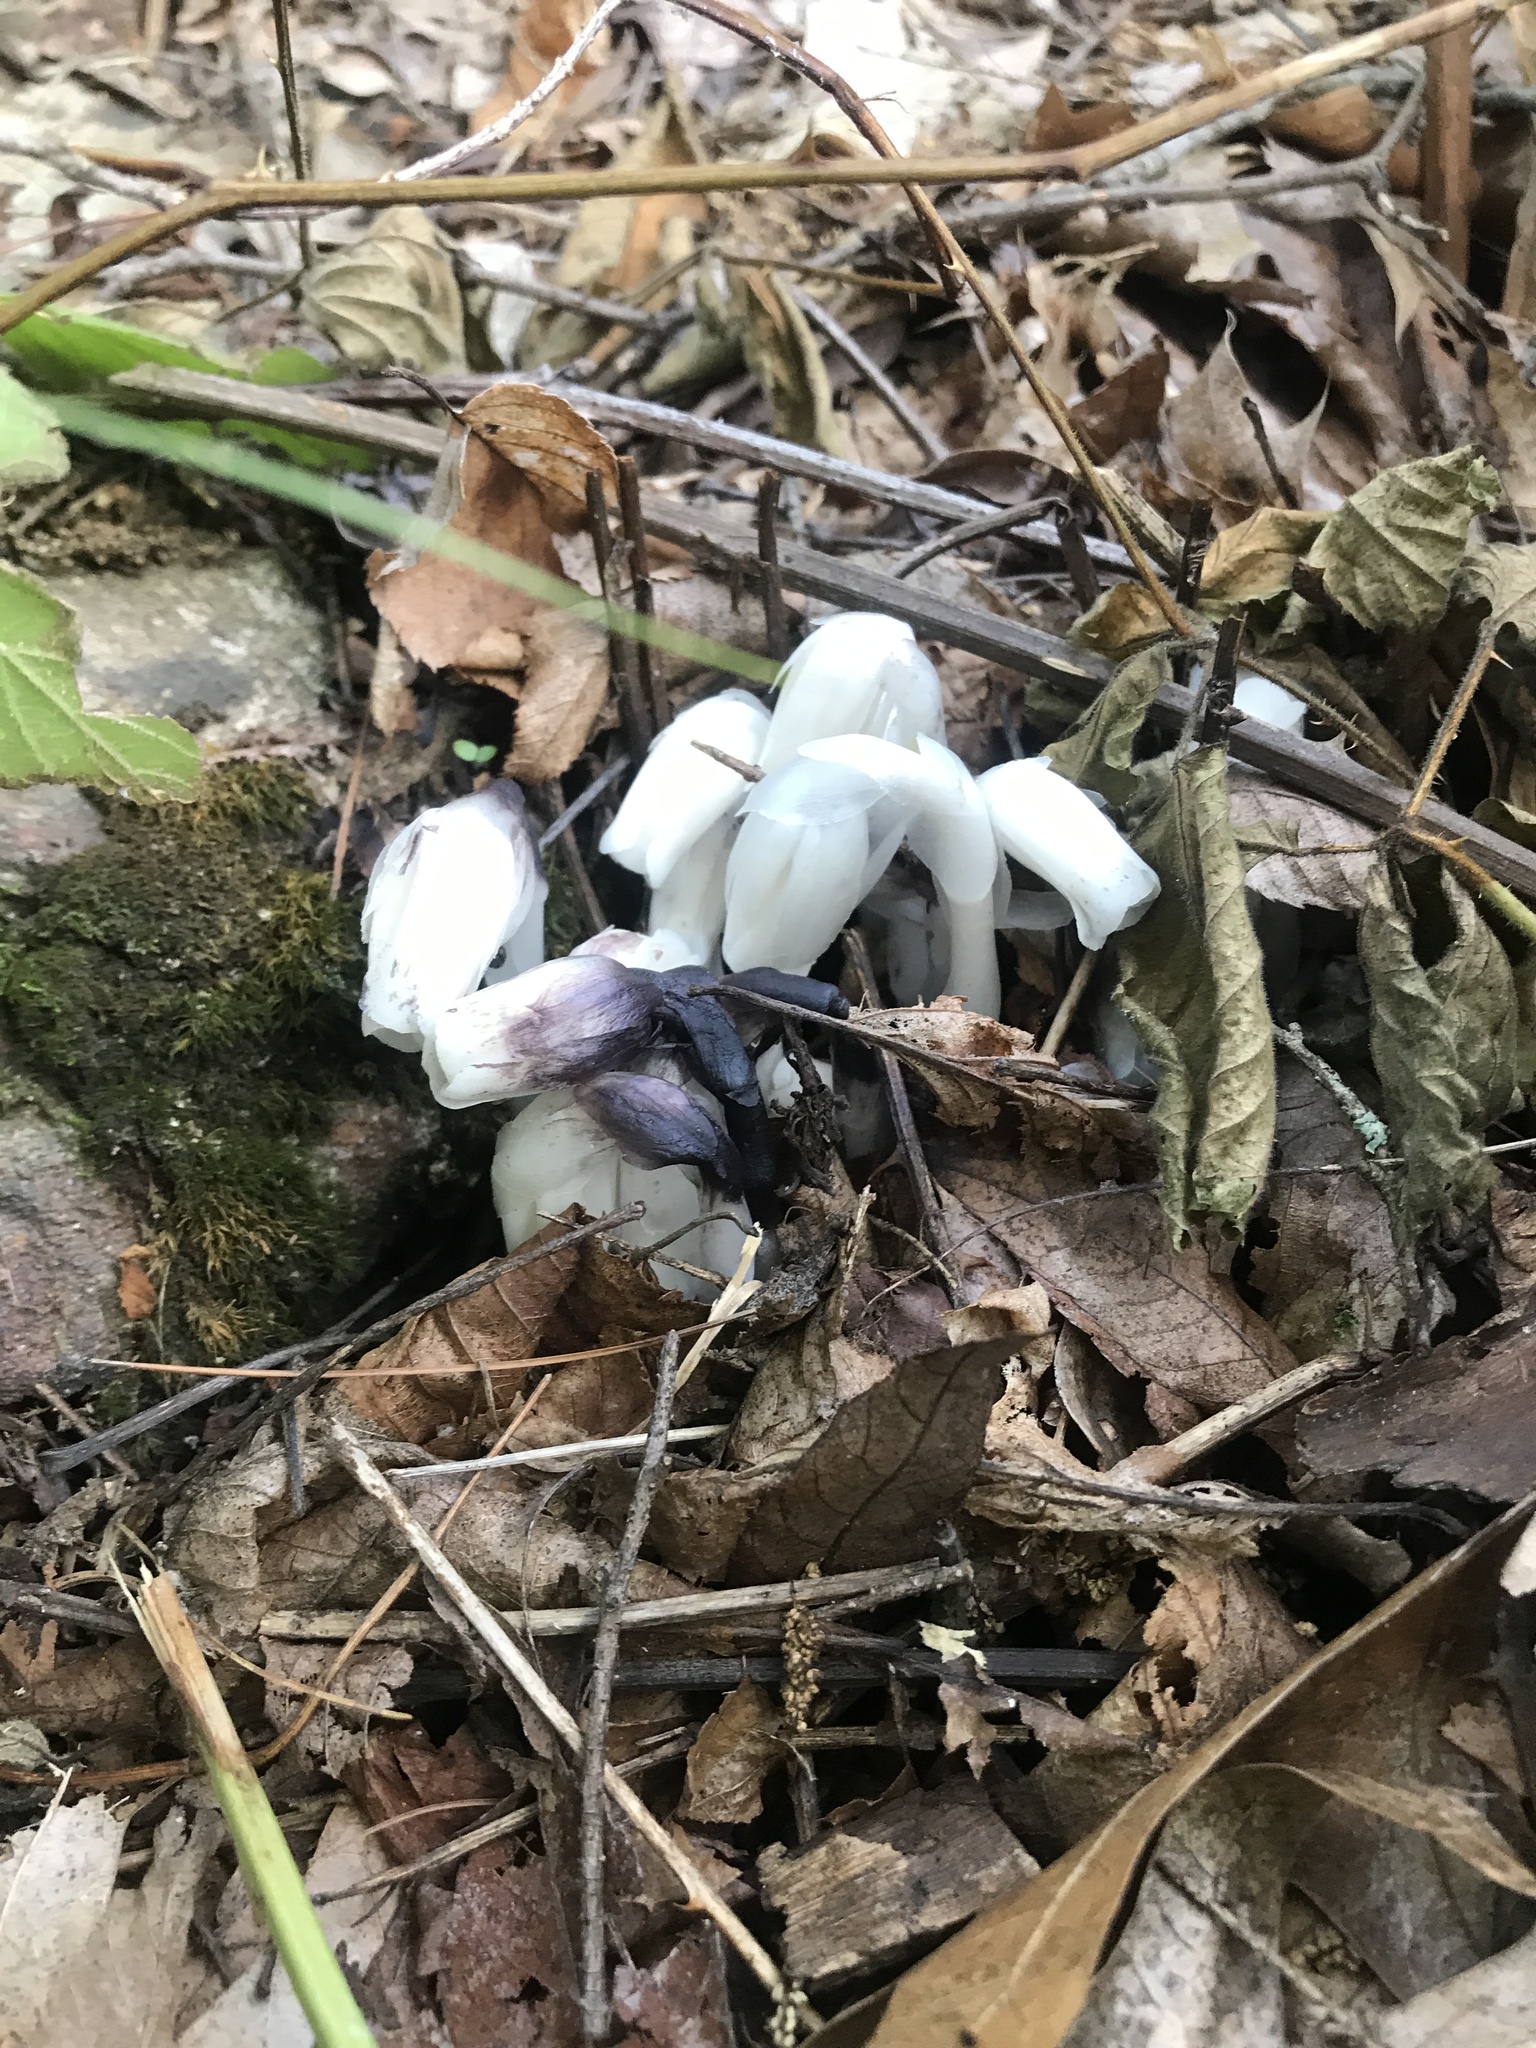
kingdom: Plantae
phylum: Tracheophyta
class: Magnoliopsida
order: Ericales
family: Ericaceae
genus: Monotropa
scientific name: Monotropa uniflora
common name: Convulsion root
